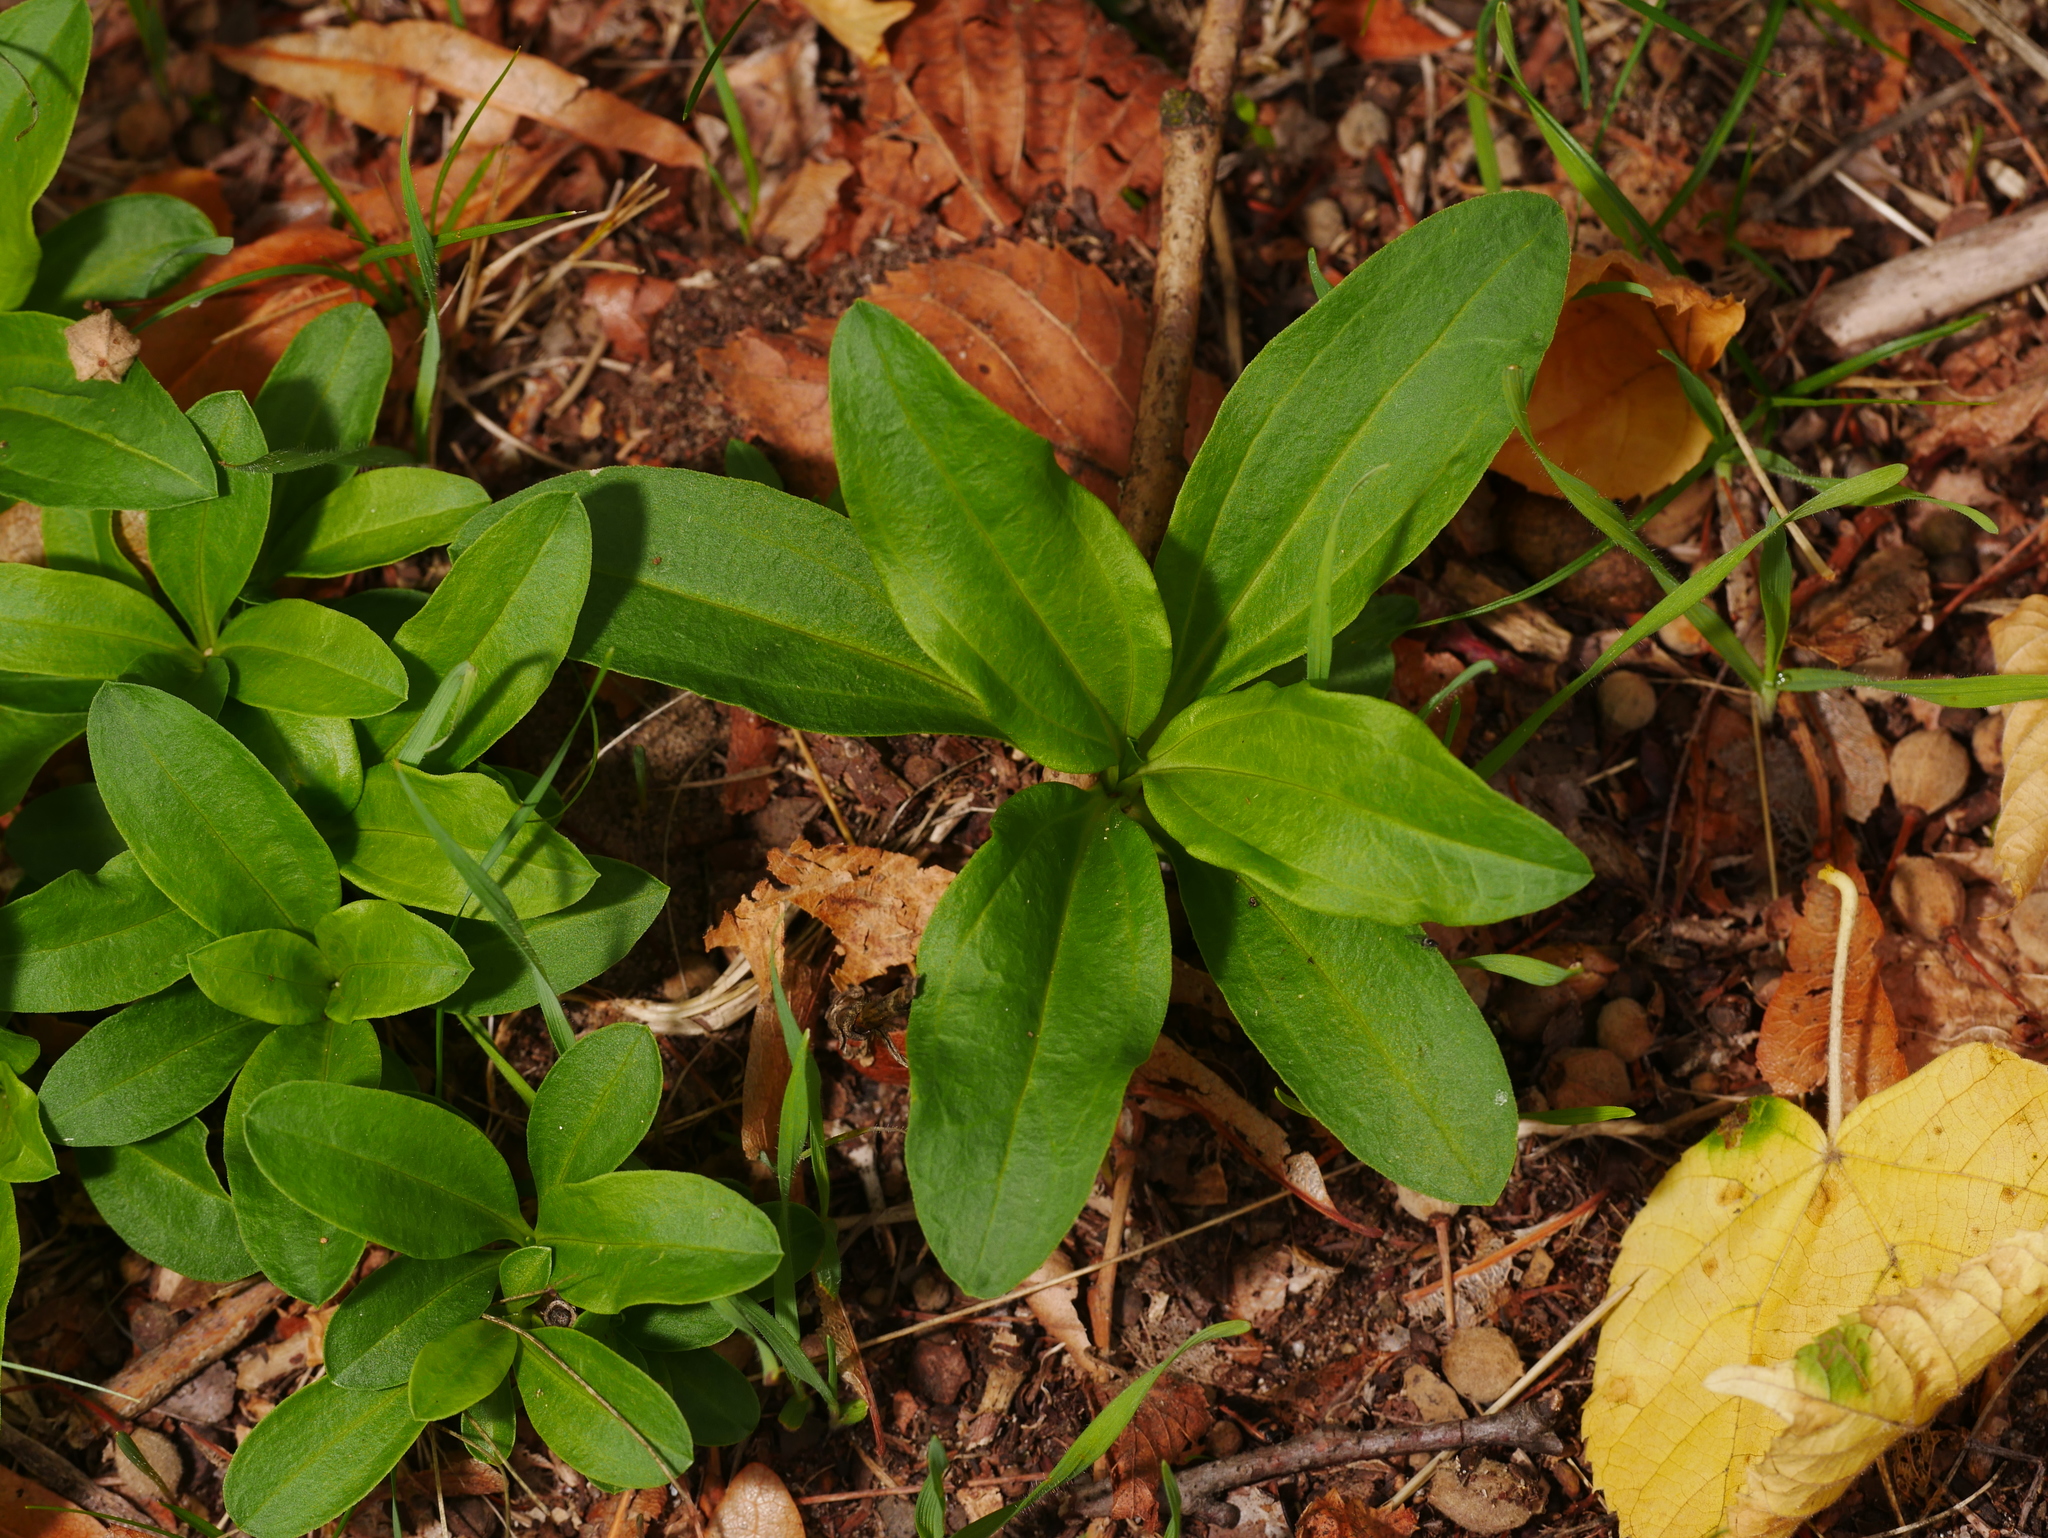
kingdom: Plantae
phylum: Tracheophyta
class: Magnoliopsida
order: Caryophyllales
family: Caryophyllaceae
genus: Saponaria
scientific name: Saponaria officinalis
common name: Soapwort
